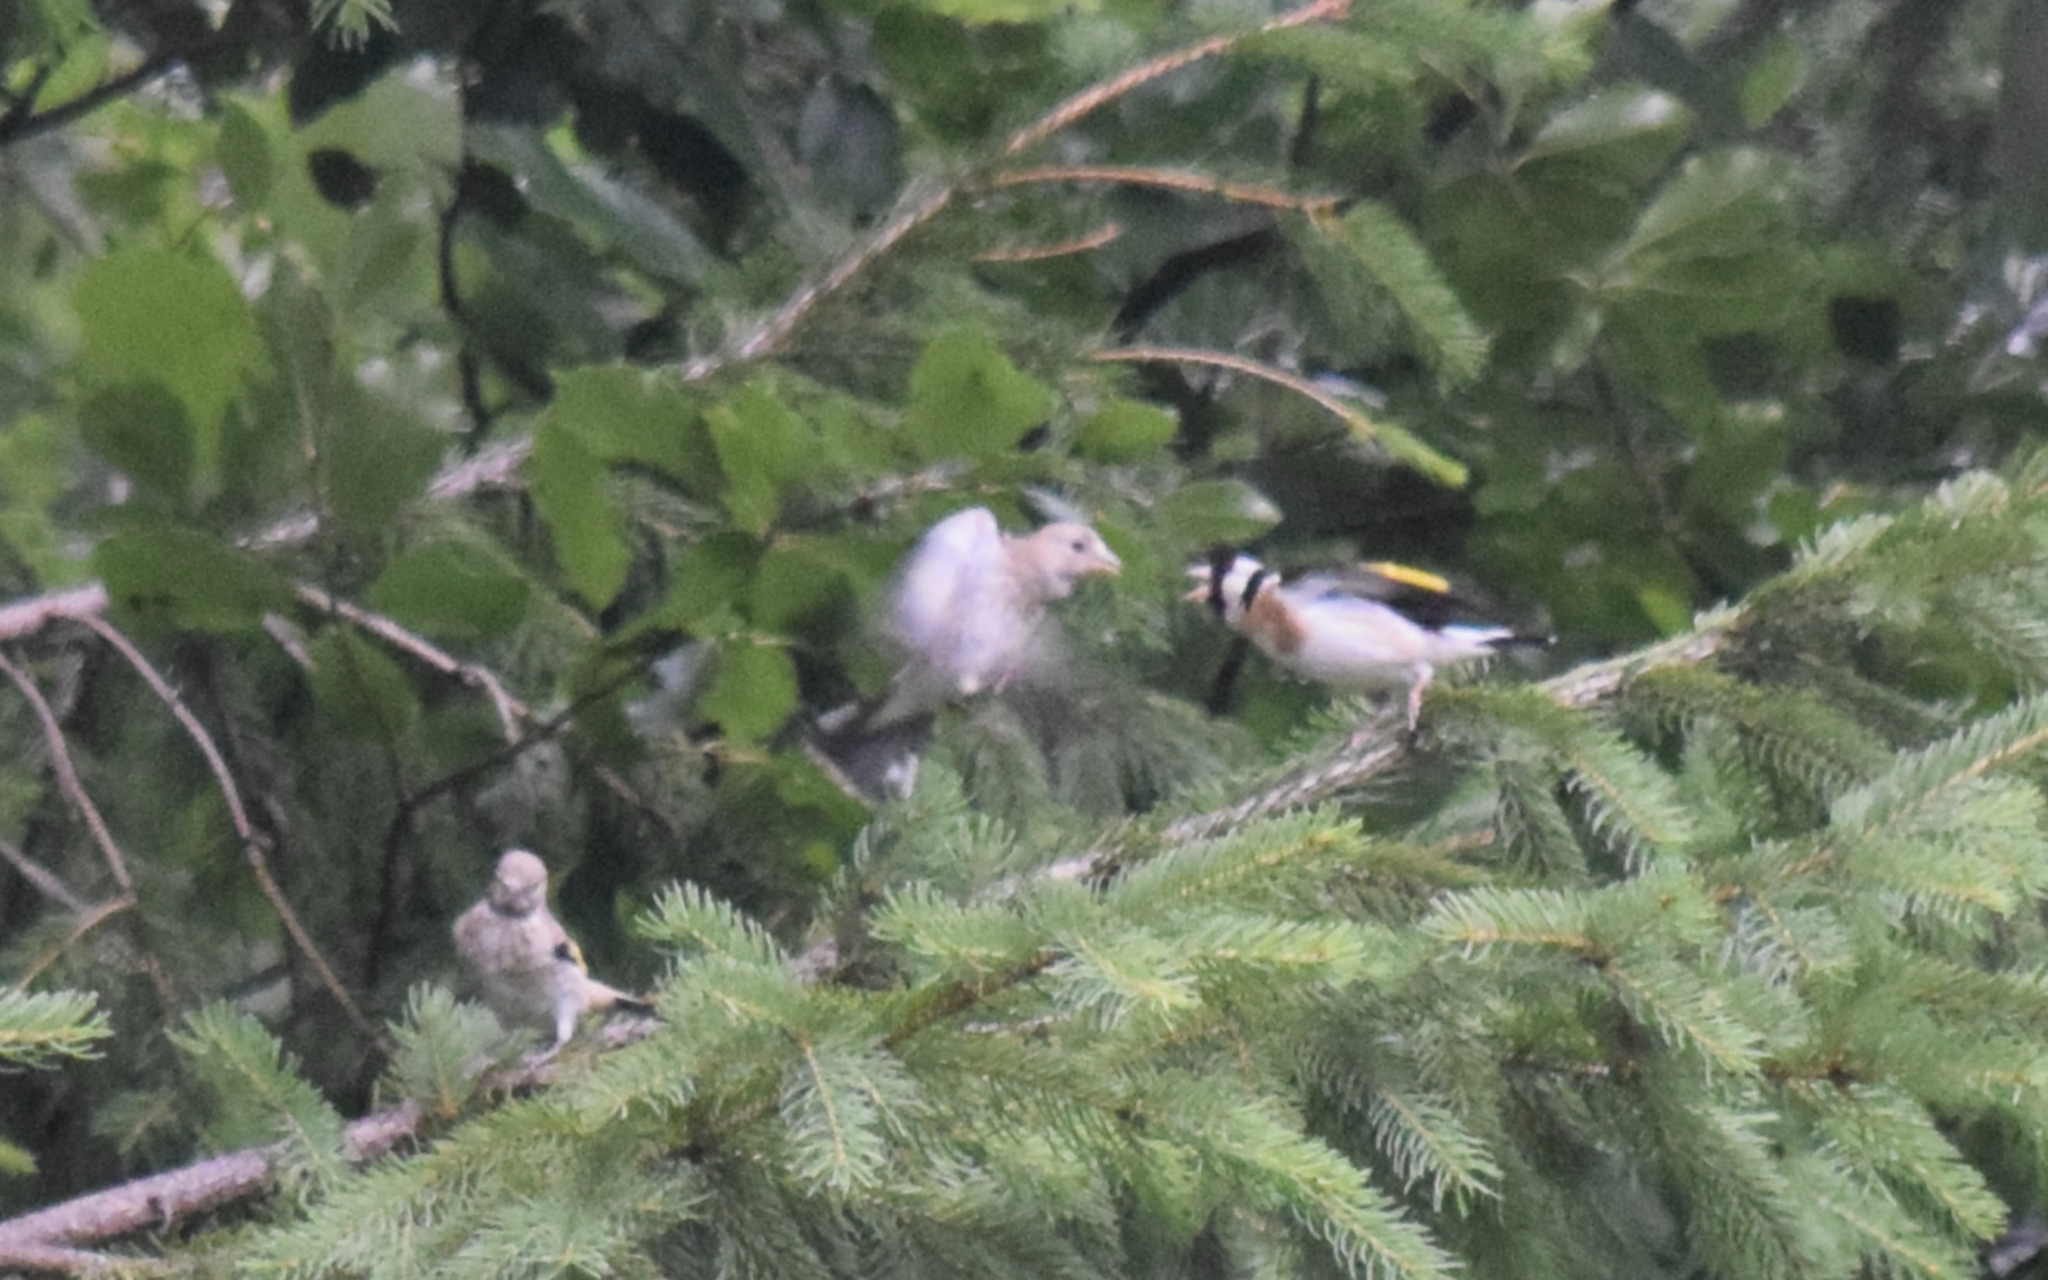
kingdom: Animalia
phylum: Chordata
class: Aves
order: Passeriformes
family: Fringillidae
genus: Carduelis
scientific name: Carduelis carduelis
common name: European goldfinch
